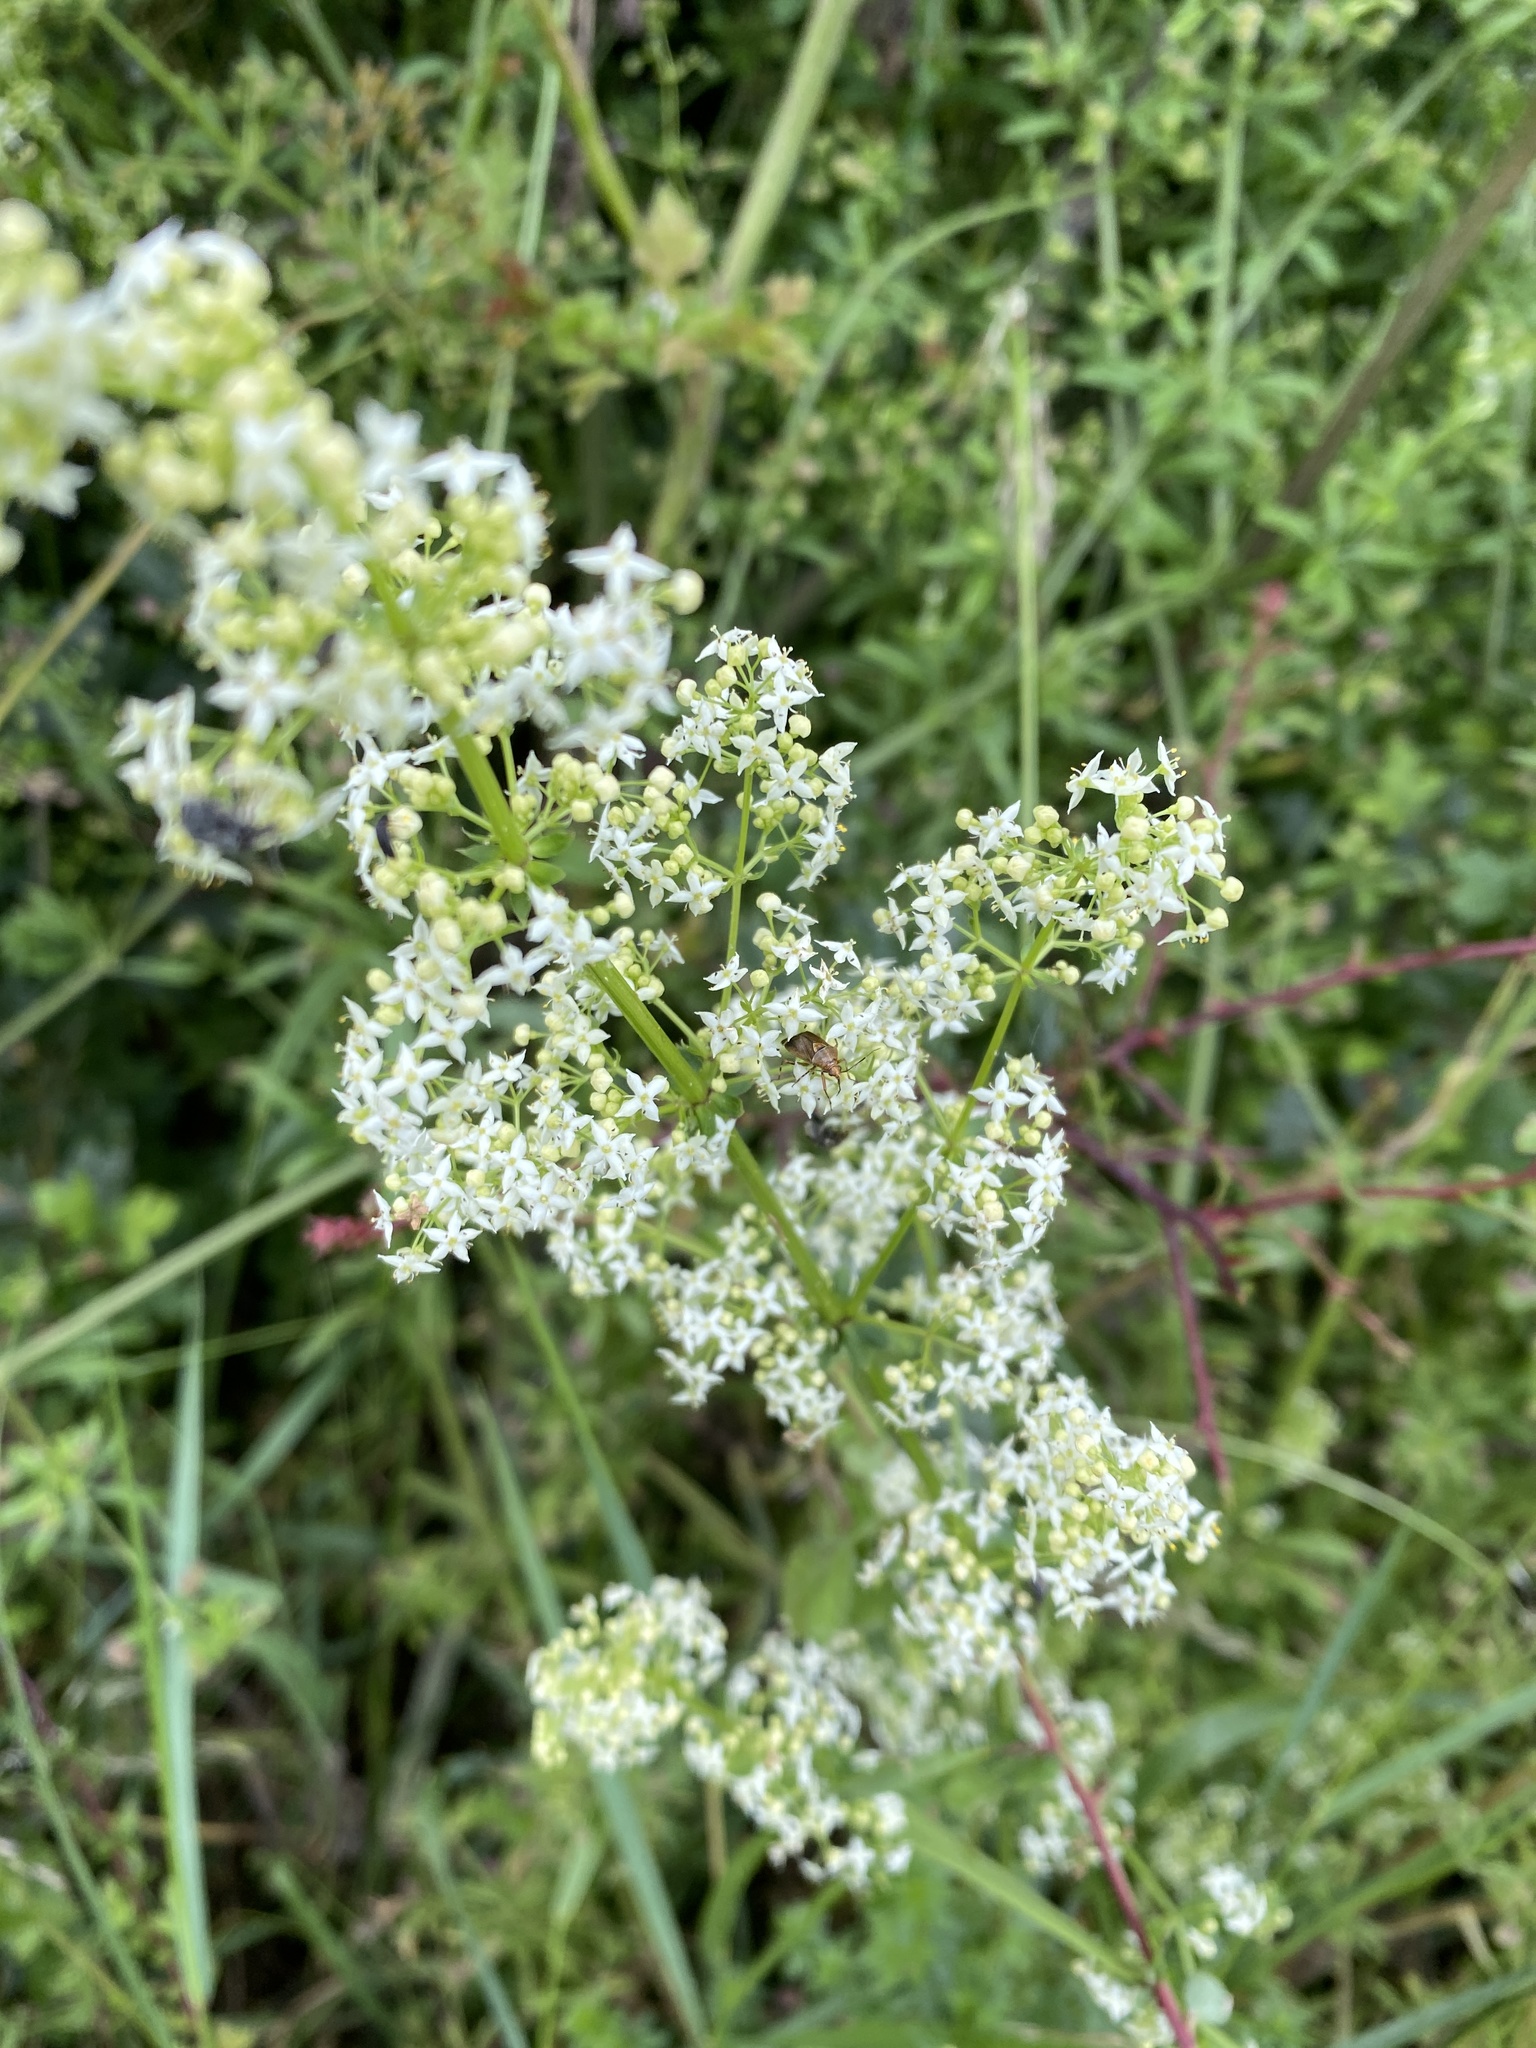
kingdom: Plantae
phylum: Tracheophyta
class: Magnoliopsida
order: Gentianales
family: Rubiaceae
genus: Galium
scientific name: Galium album
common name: White bedstraw
